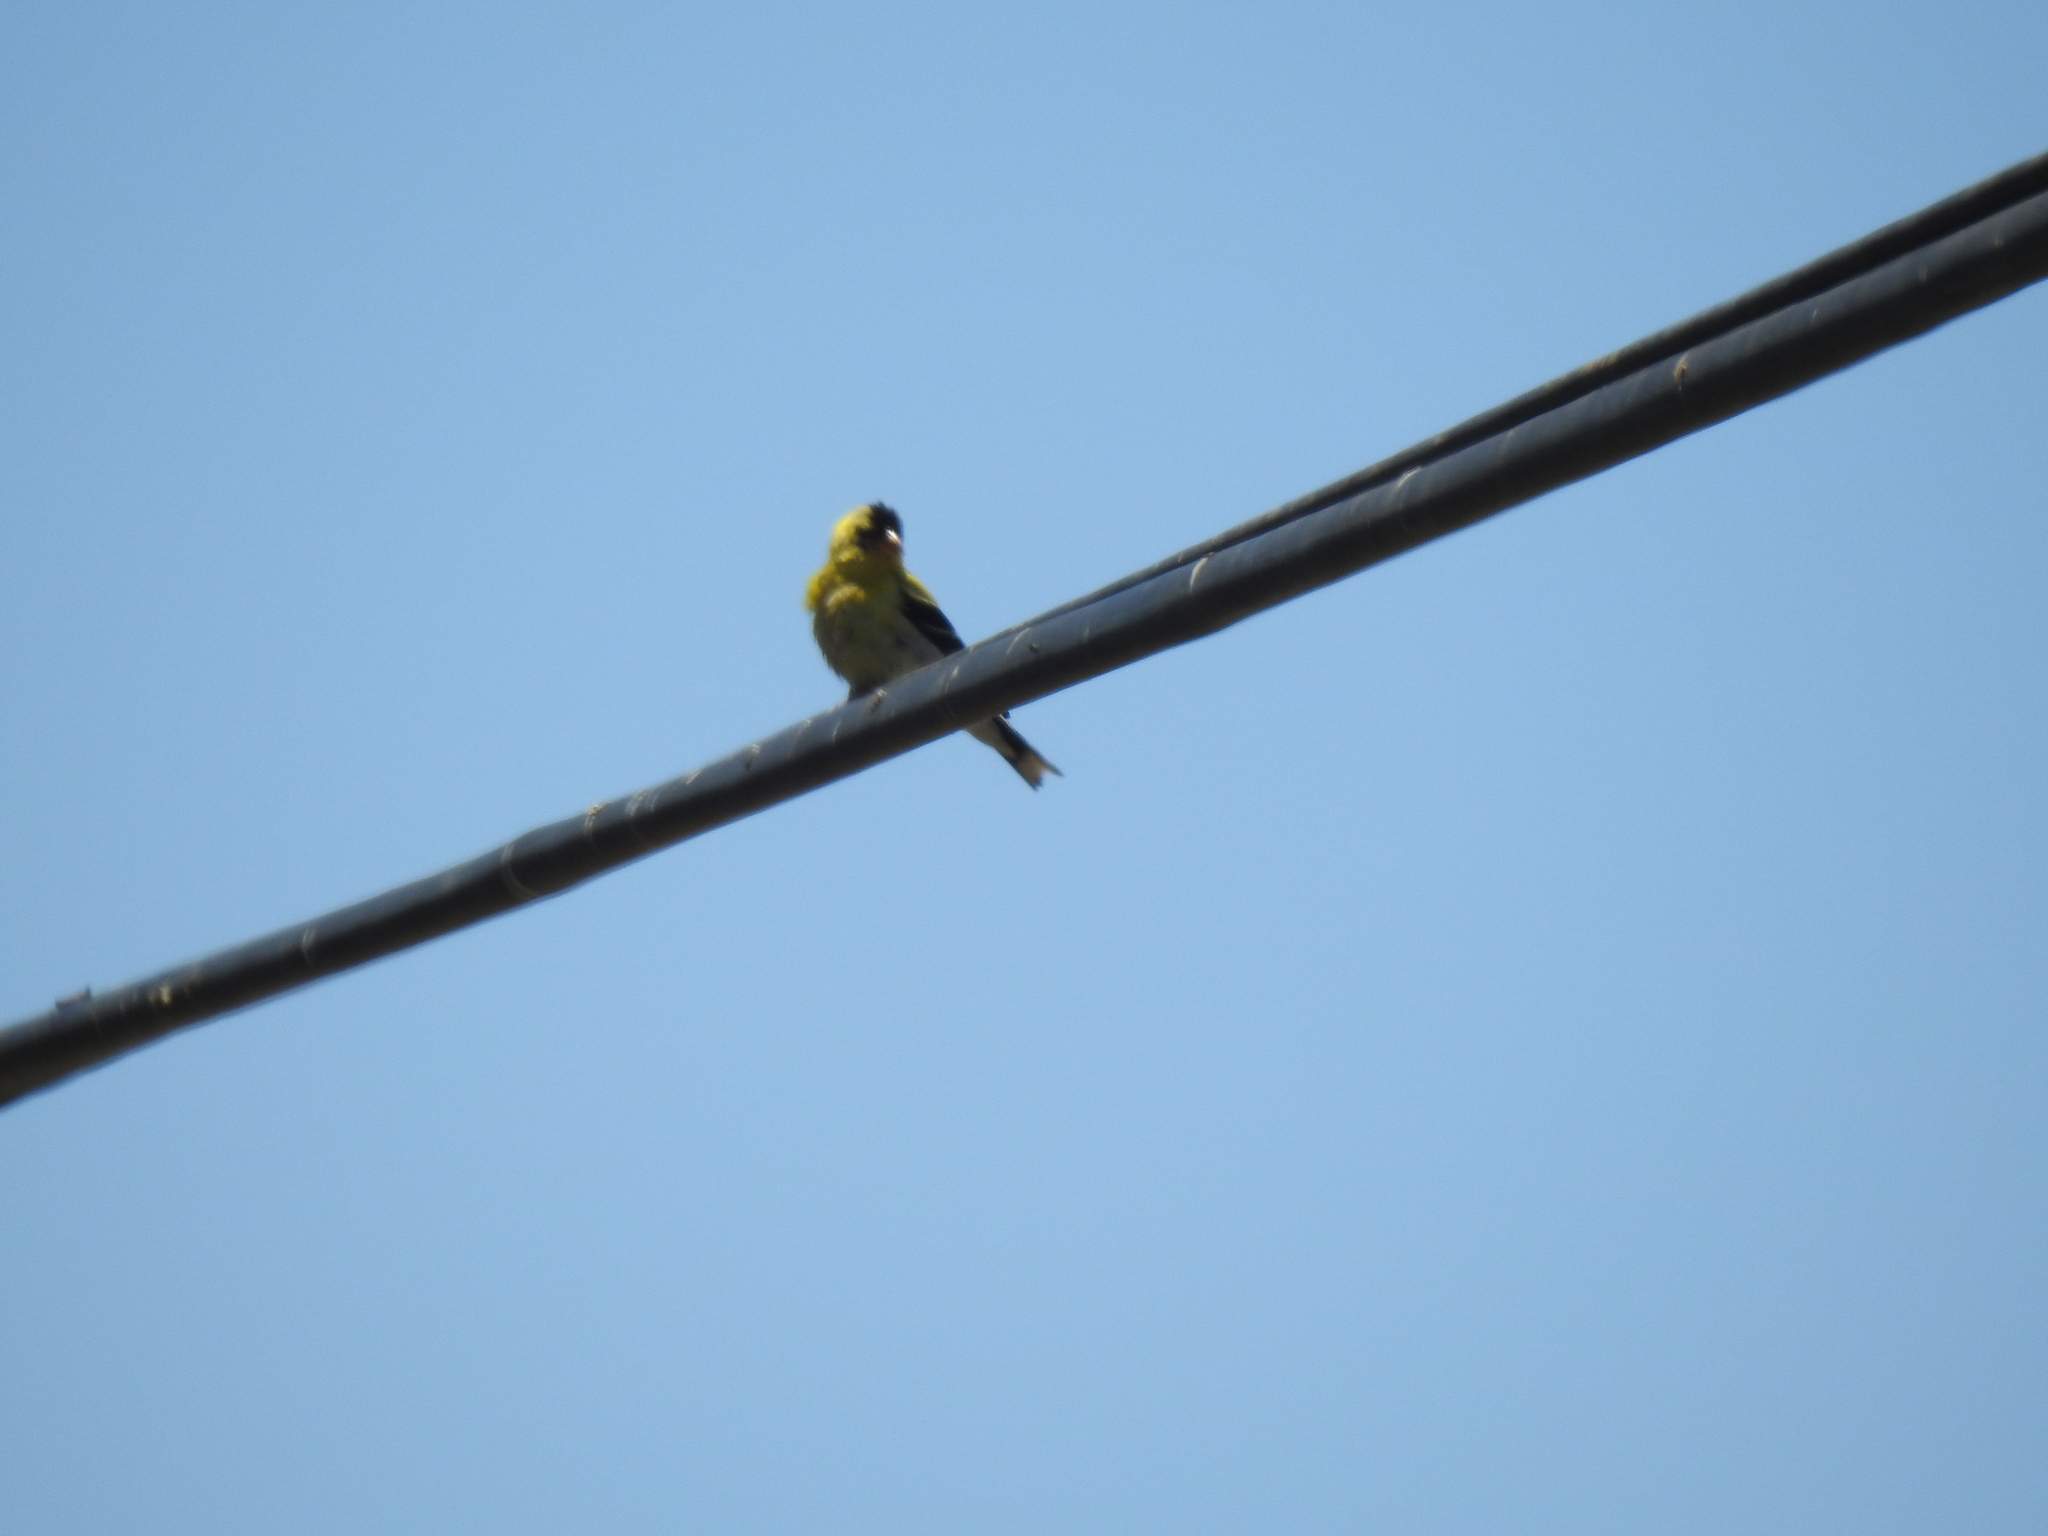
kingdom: Animalia
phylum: Chordata
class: Aves
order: Passeriformes
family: Fringillidae
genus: Spinus
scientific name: Spinus tristis
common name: American goldfinch
